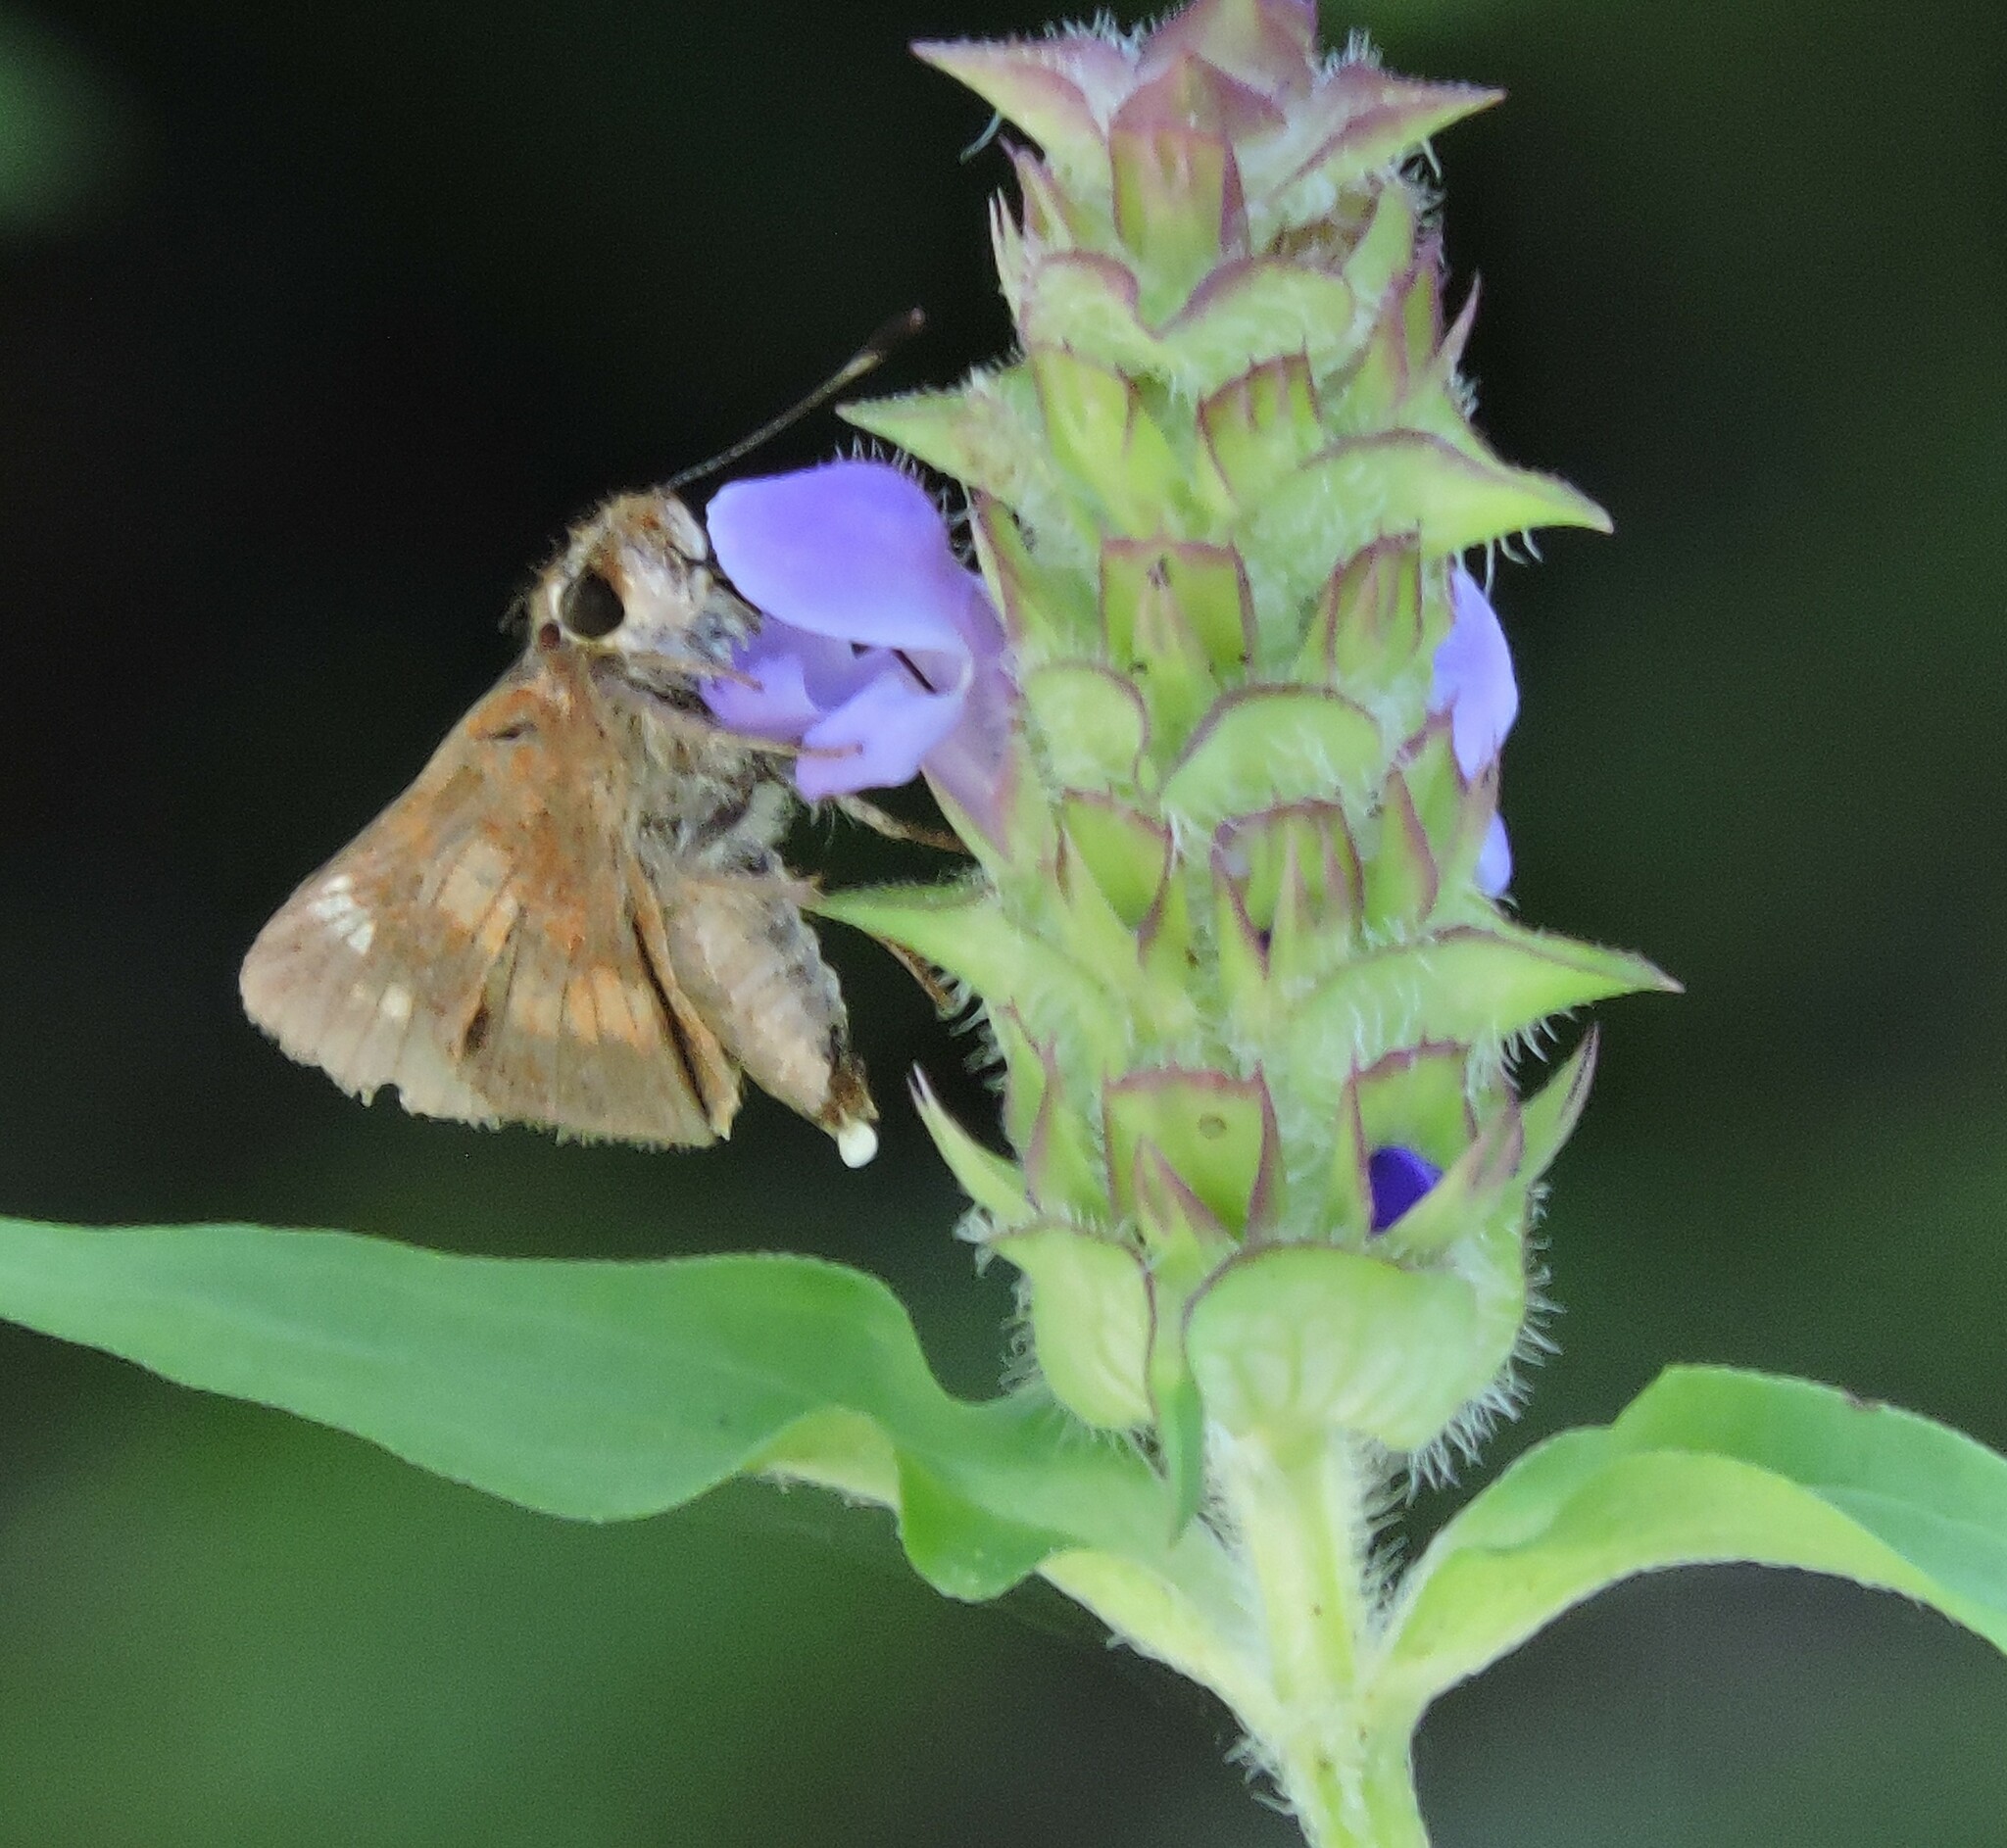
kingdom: Animalia
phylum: Arthropoda
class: Insecta
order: Lepidoptera
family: Hesperiidae
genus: Lon
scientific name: Lon melane
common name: Umber skipper
